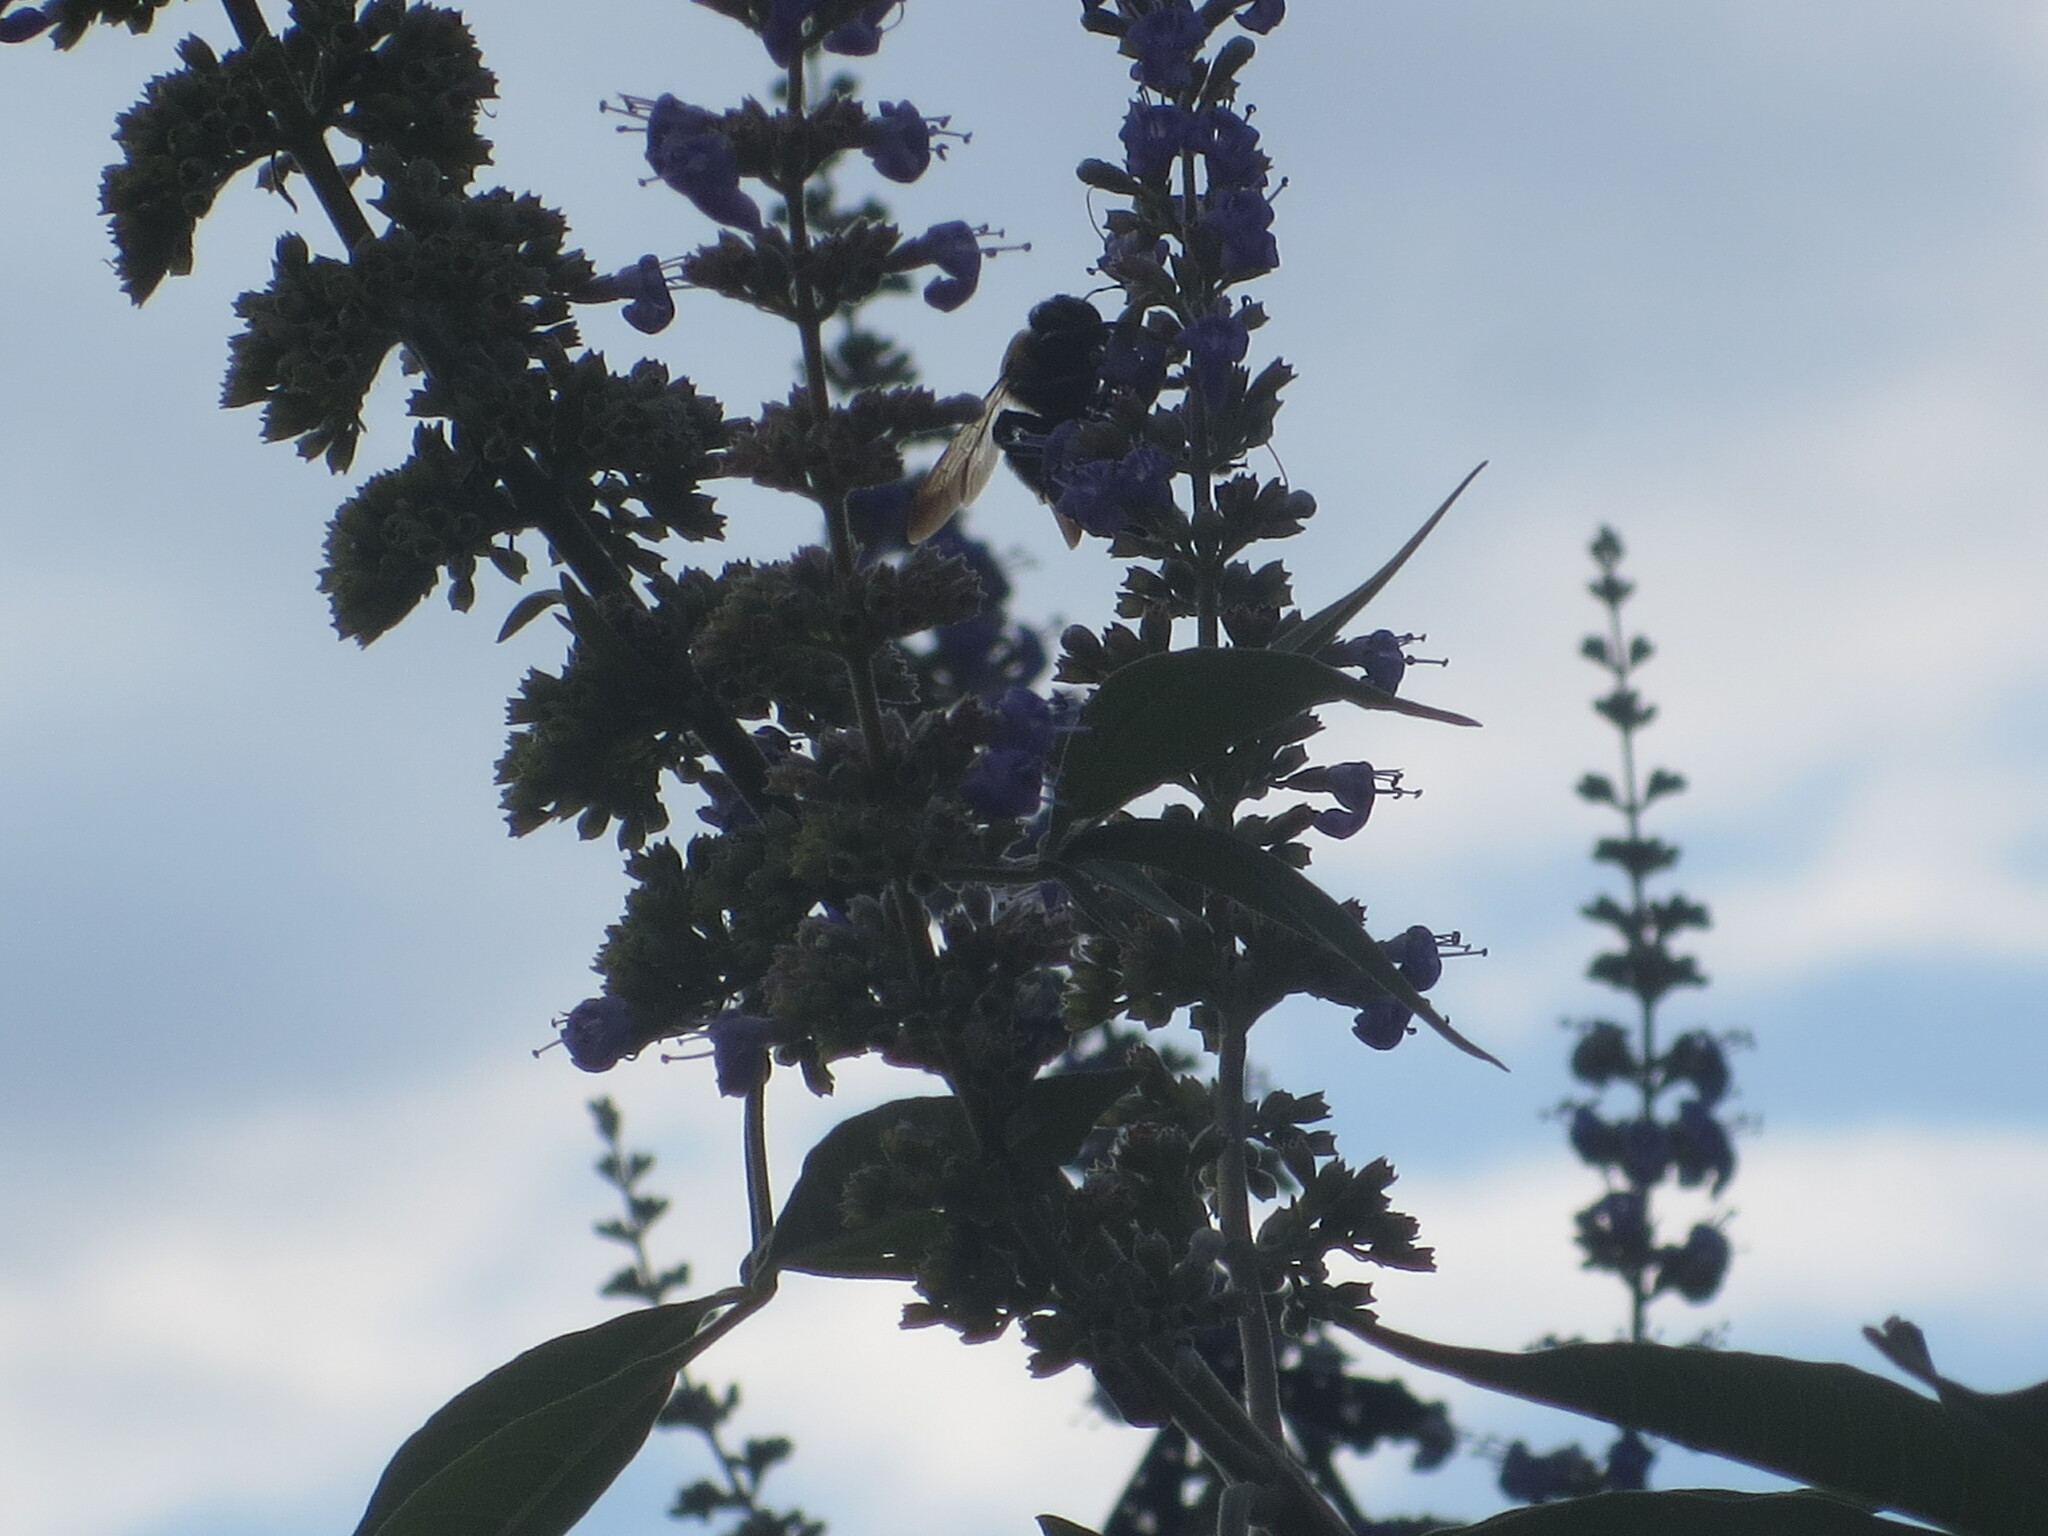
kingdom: Animalia
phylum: Arthropoda
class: Insecta
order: Hymenoptera
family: Apidae
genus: Xylocopa
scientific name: Xylocopa virginica
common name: Carpenter bee
